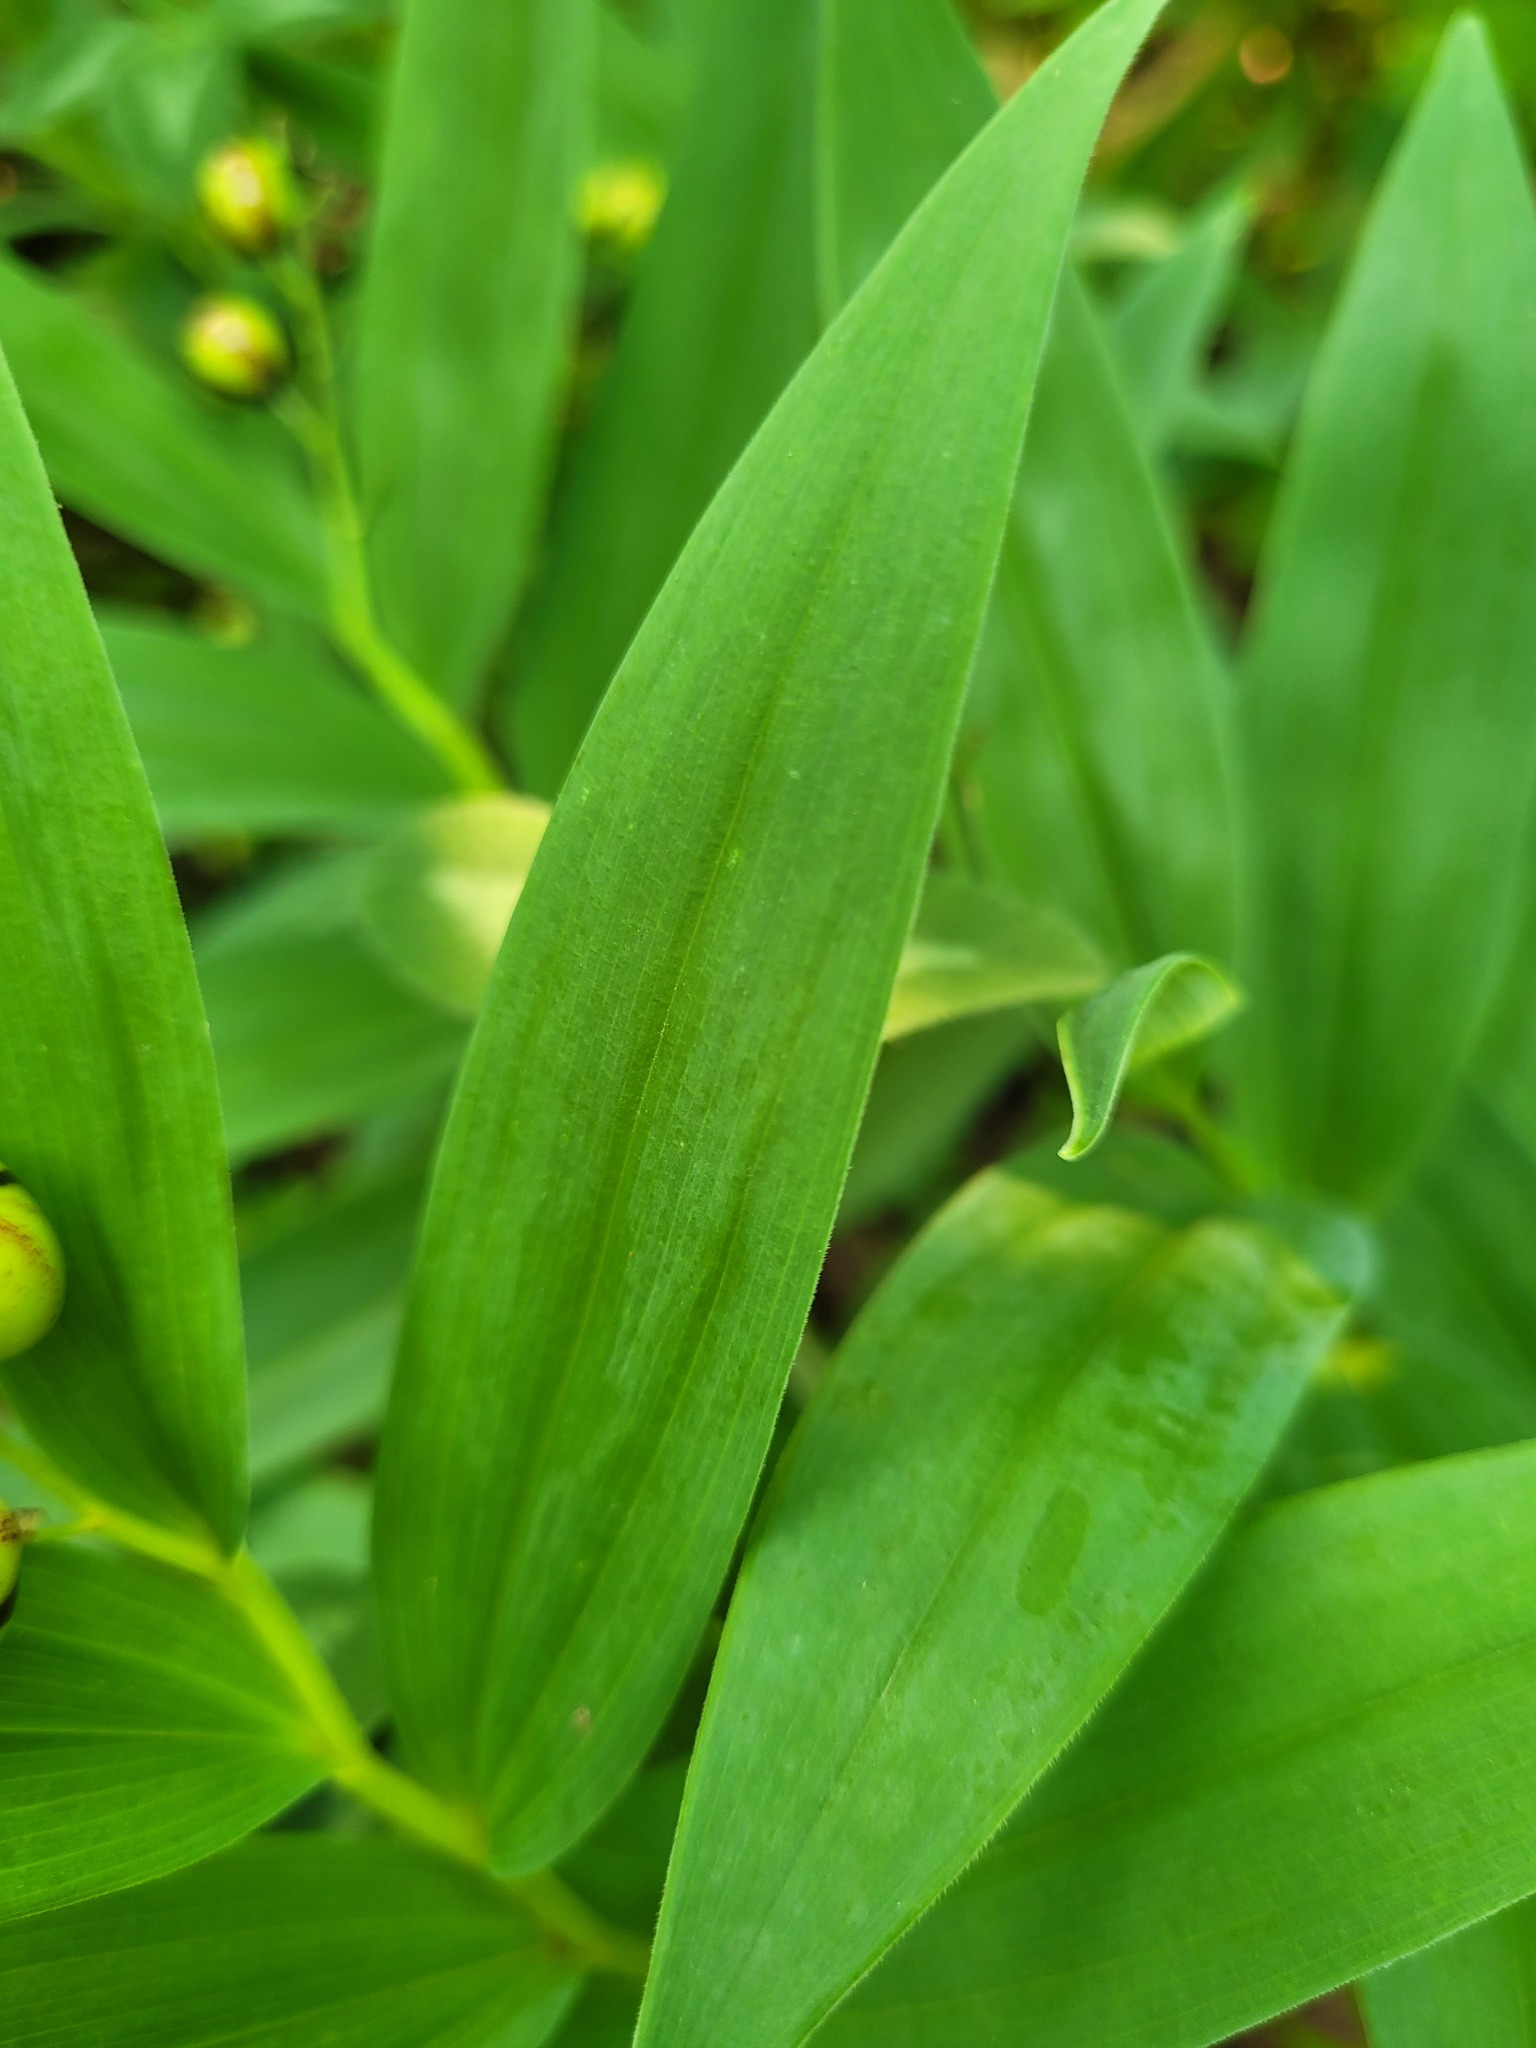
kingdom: Plantae
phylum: Tracheophyta
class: Liliopsida
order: Asparagales
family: Asparagaceae
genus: Maianthemum
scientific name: Maianthemum stellatum
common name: Little false solomon's seal
